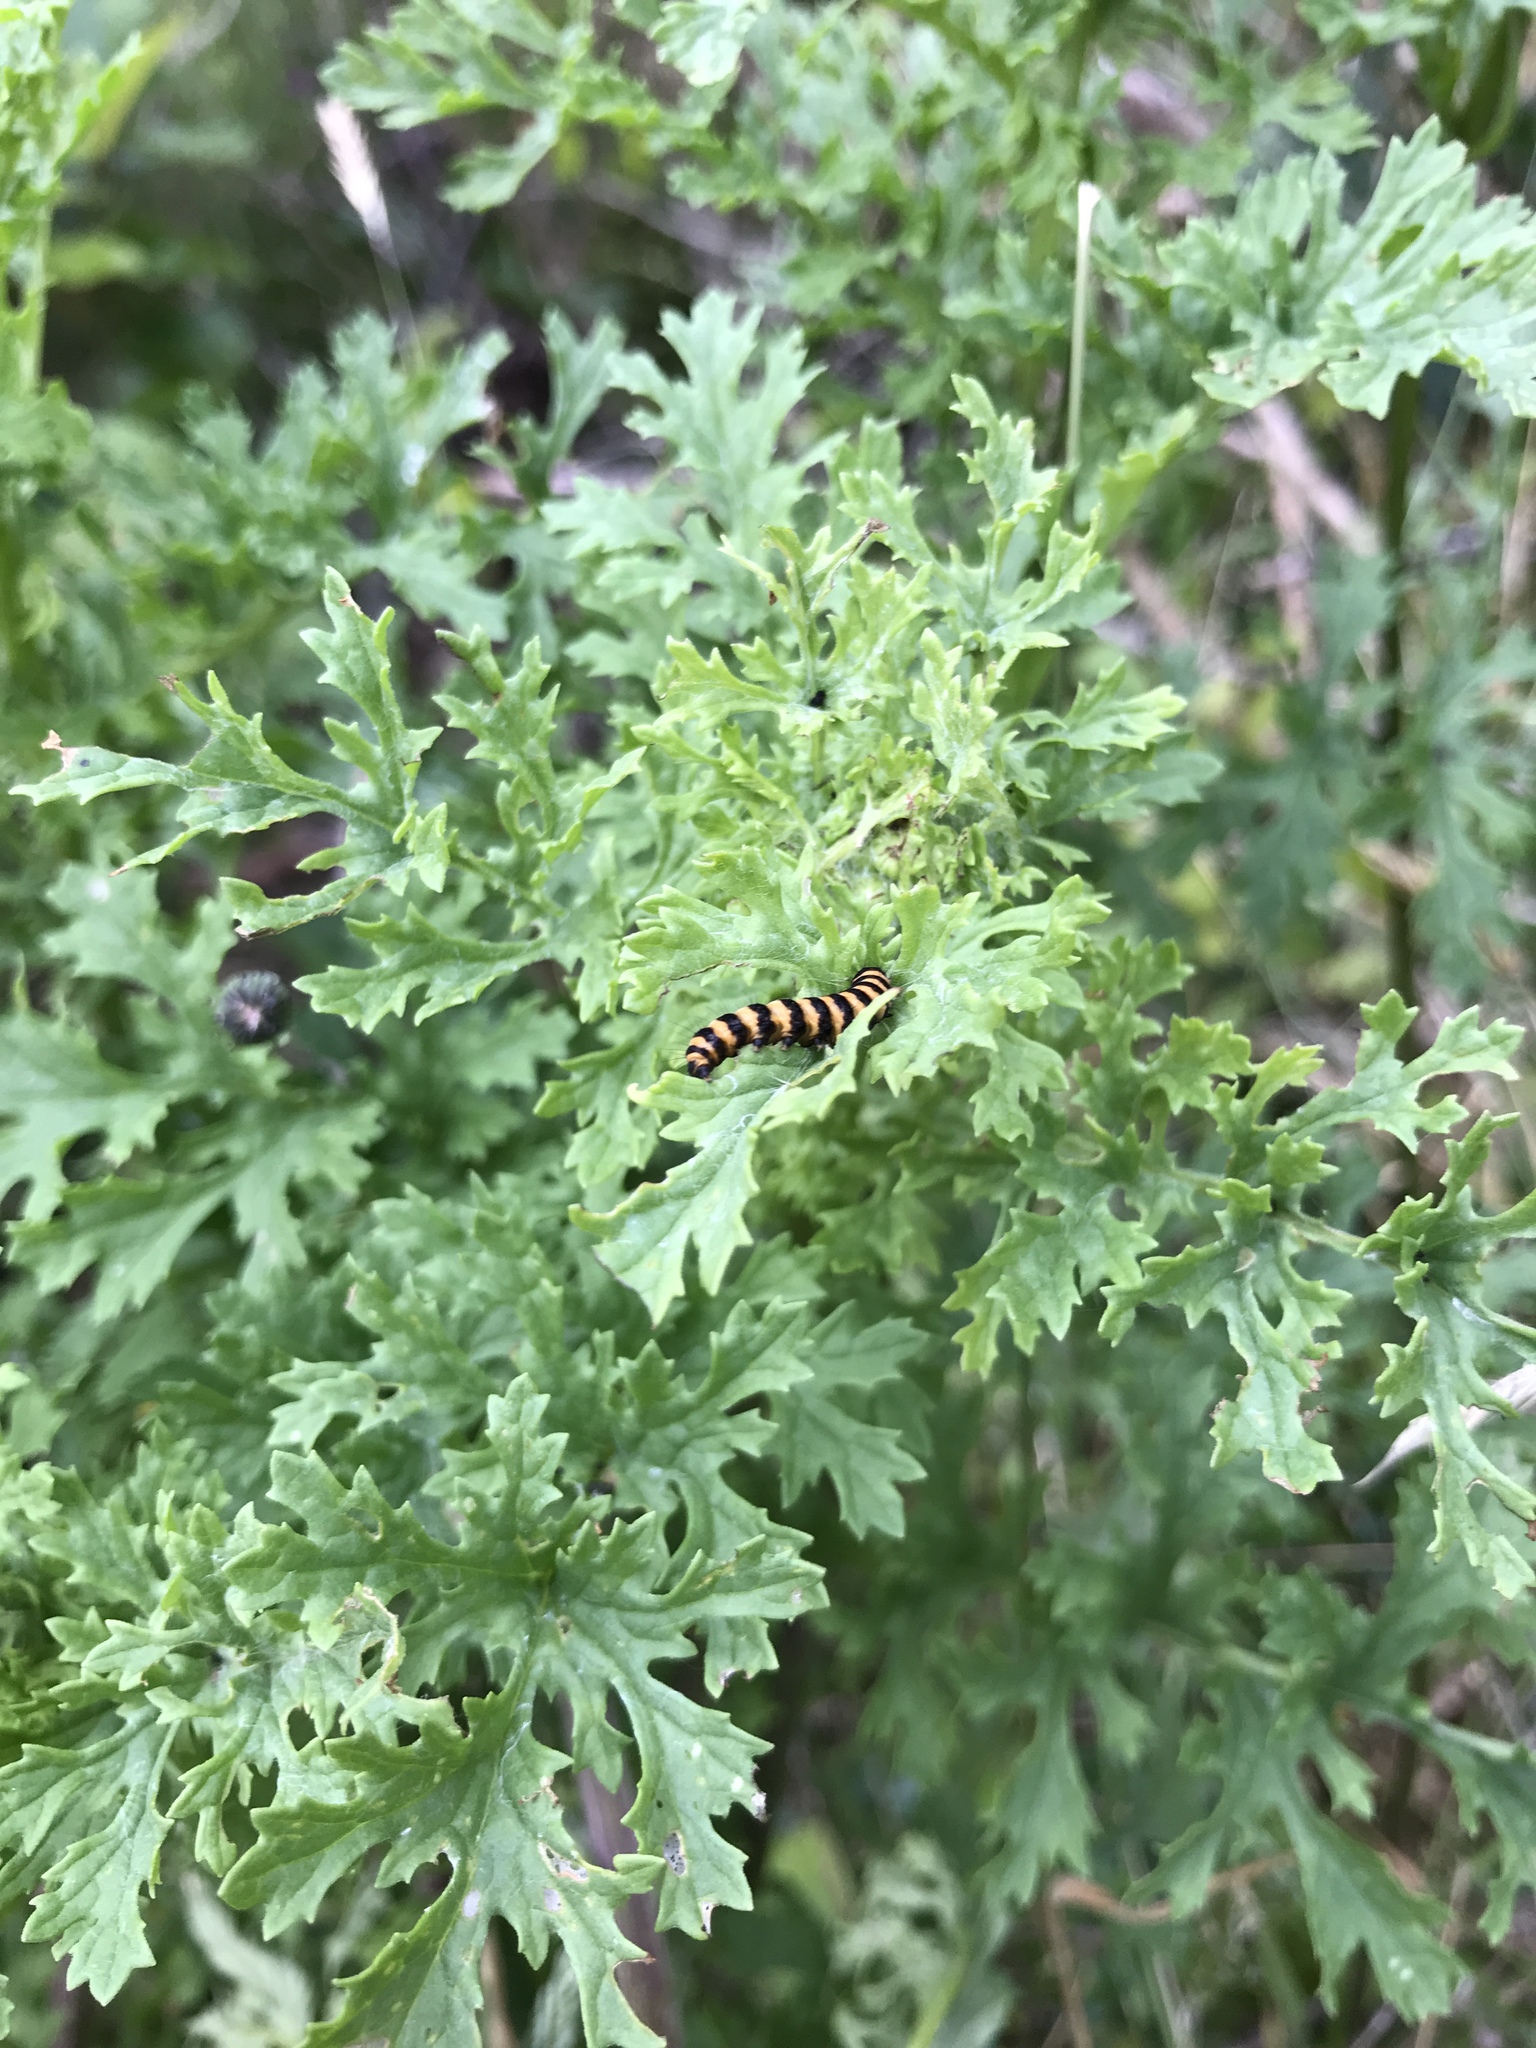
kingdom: Animalia
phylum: Arthropoda
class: Insecta
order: Lepidoptera
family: Erebidae
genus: Tyria
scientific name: Tyria jacobaeae
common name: Cinnabar
